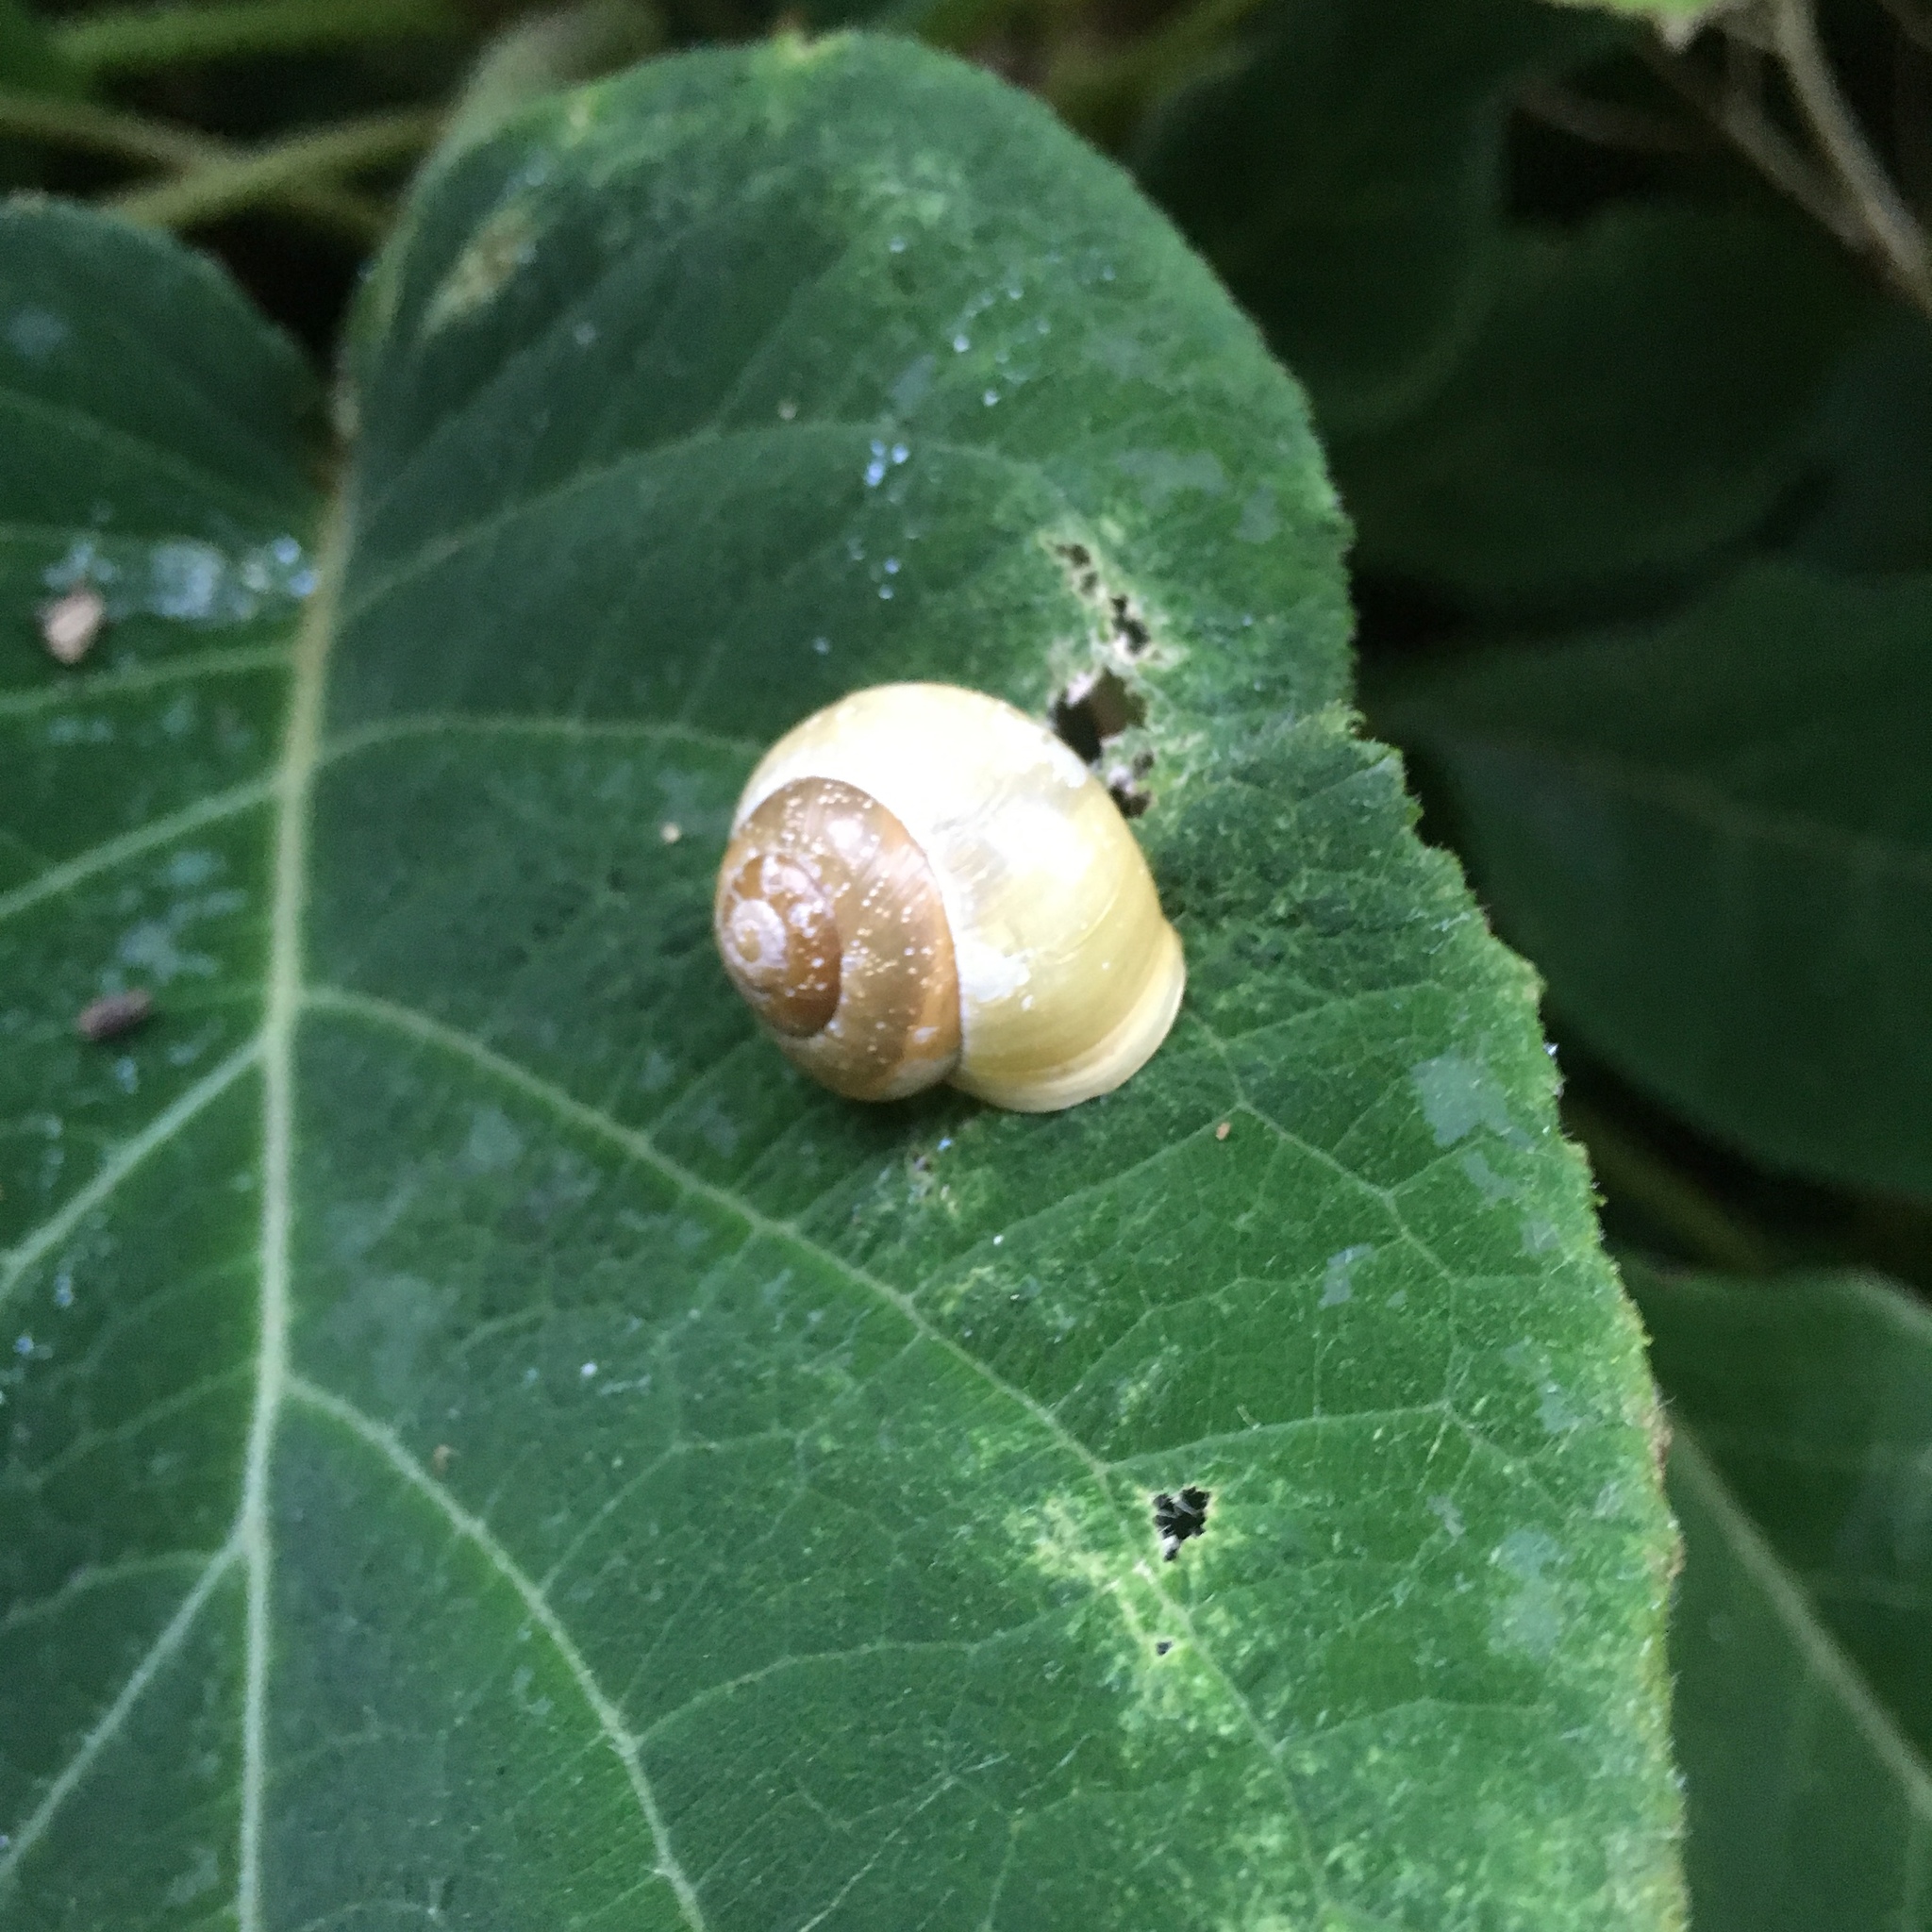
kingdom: Animalia
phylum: Mollusca
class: Gastropoda
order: Stylommatophora
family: Helicidae
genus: Cepaea
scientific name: Cepaea hortensis
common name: White-lip gardensnail
